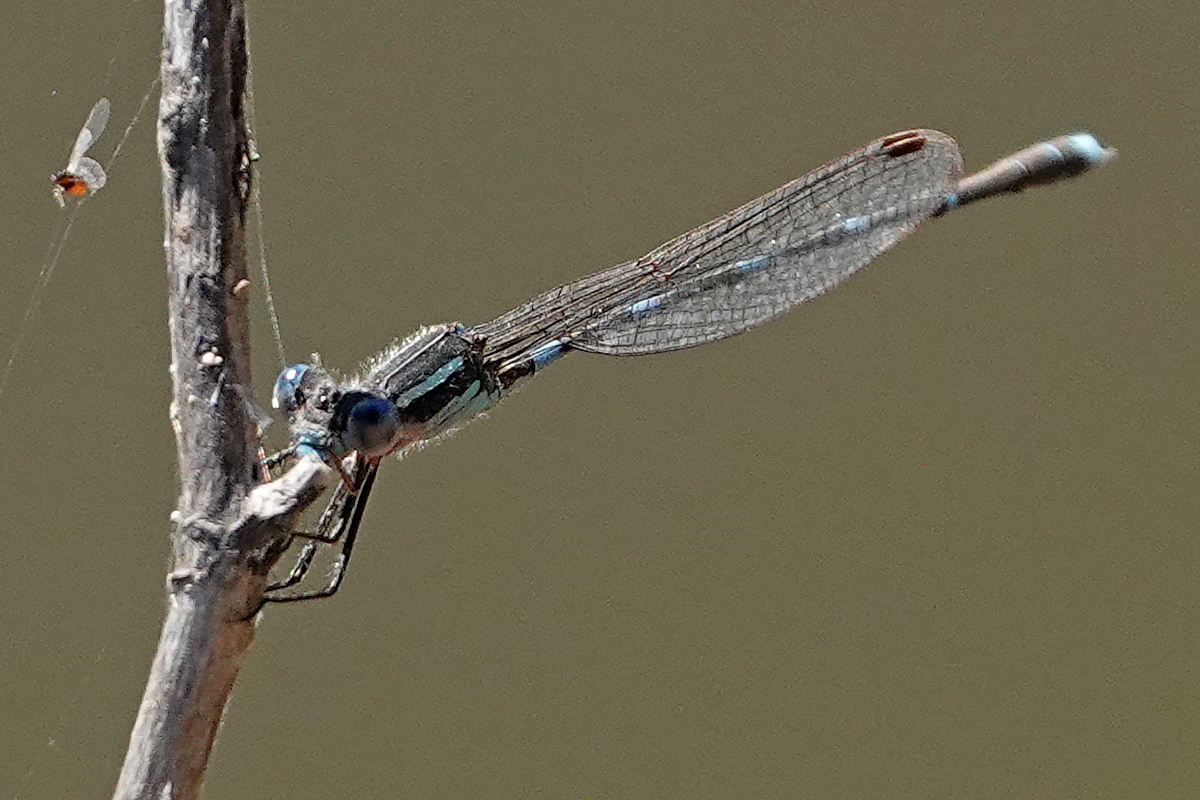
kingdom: Animalia
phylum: Arthropoda
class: Insecta
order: Odonata
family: Lestidae
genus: Austrolestes
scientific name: Austrolestes leda
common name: Wandering ringtail
